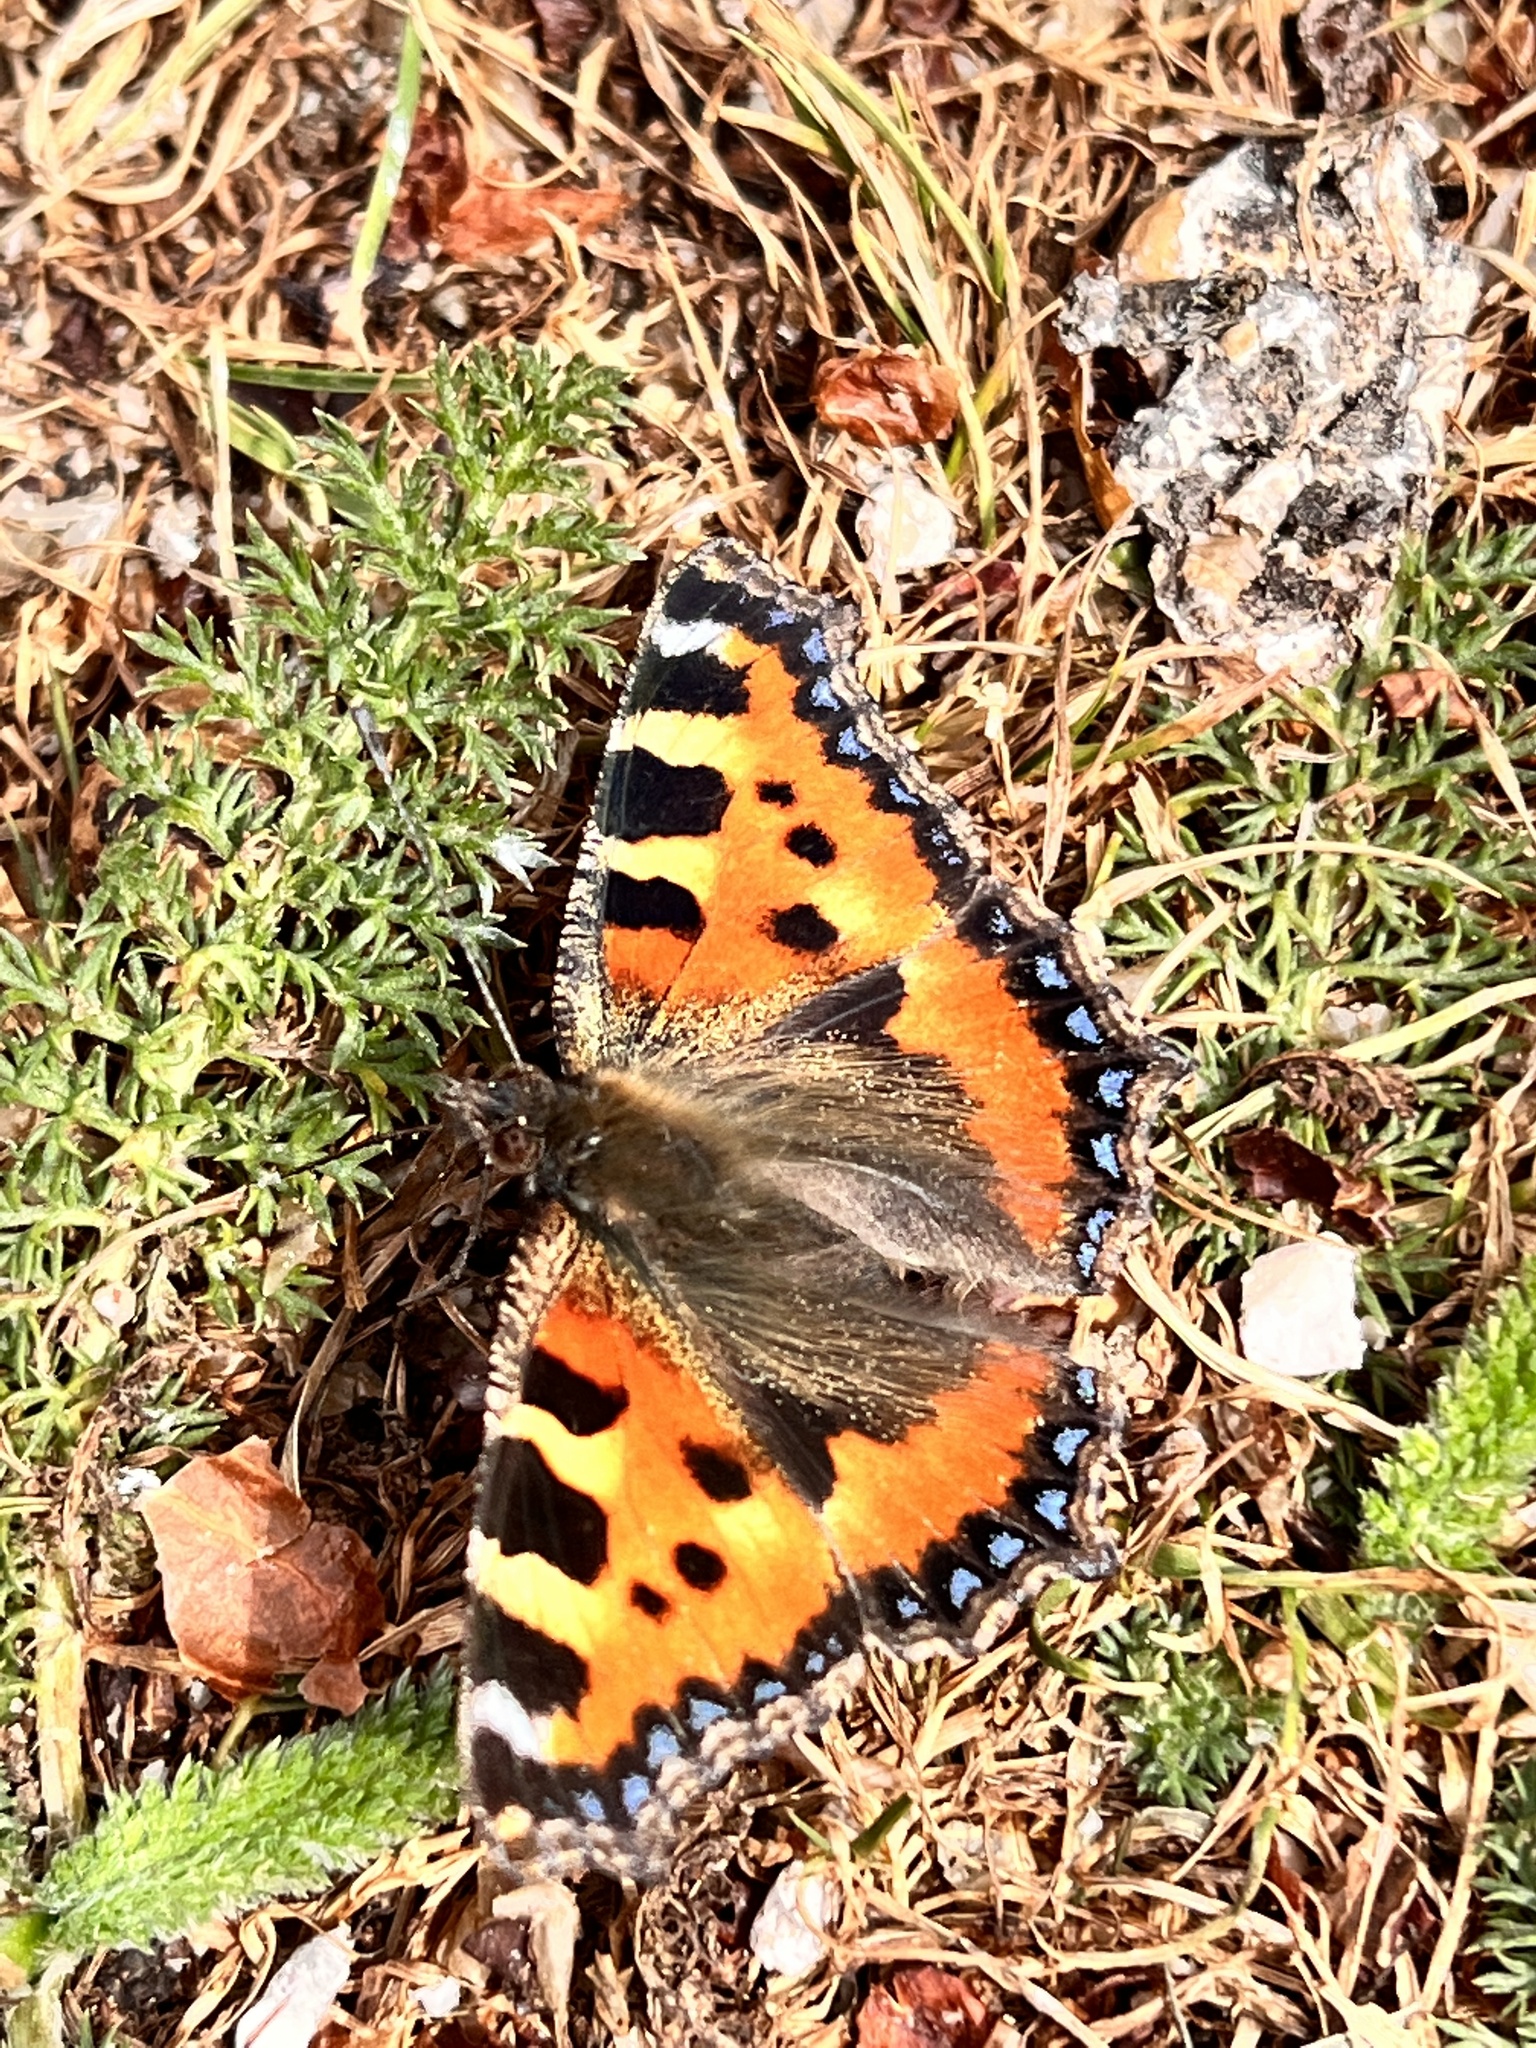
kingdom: Animalia
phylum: Arthropoda
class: Insecta
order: Lepidoptera
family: Nymphalidae
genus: Aglais
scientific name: Aglais urticae
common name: Small tortoiseshell
